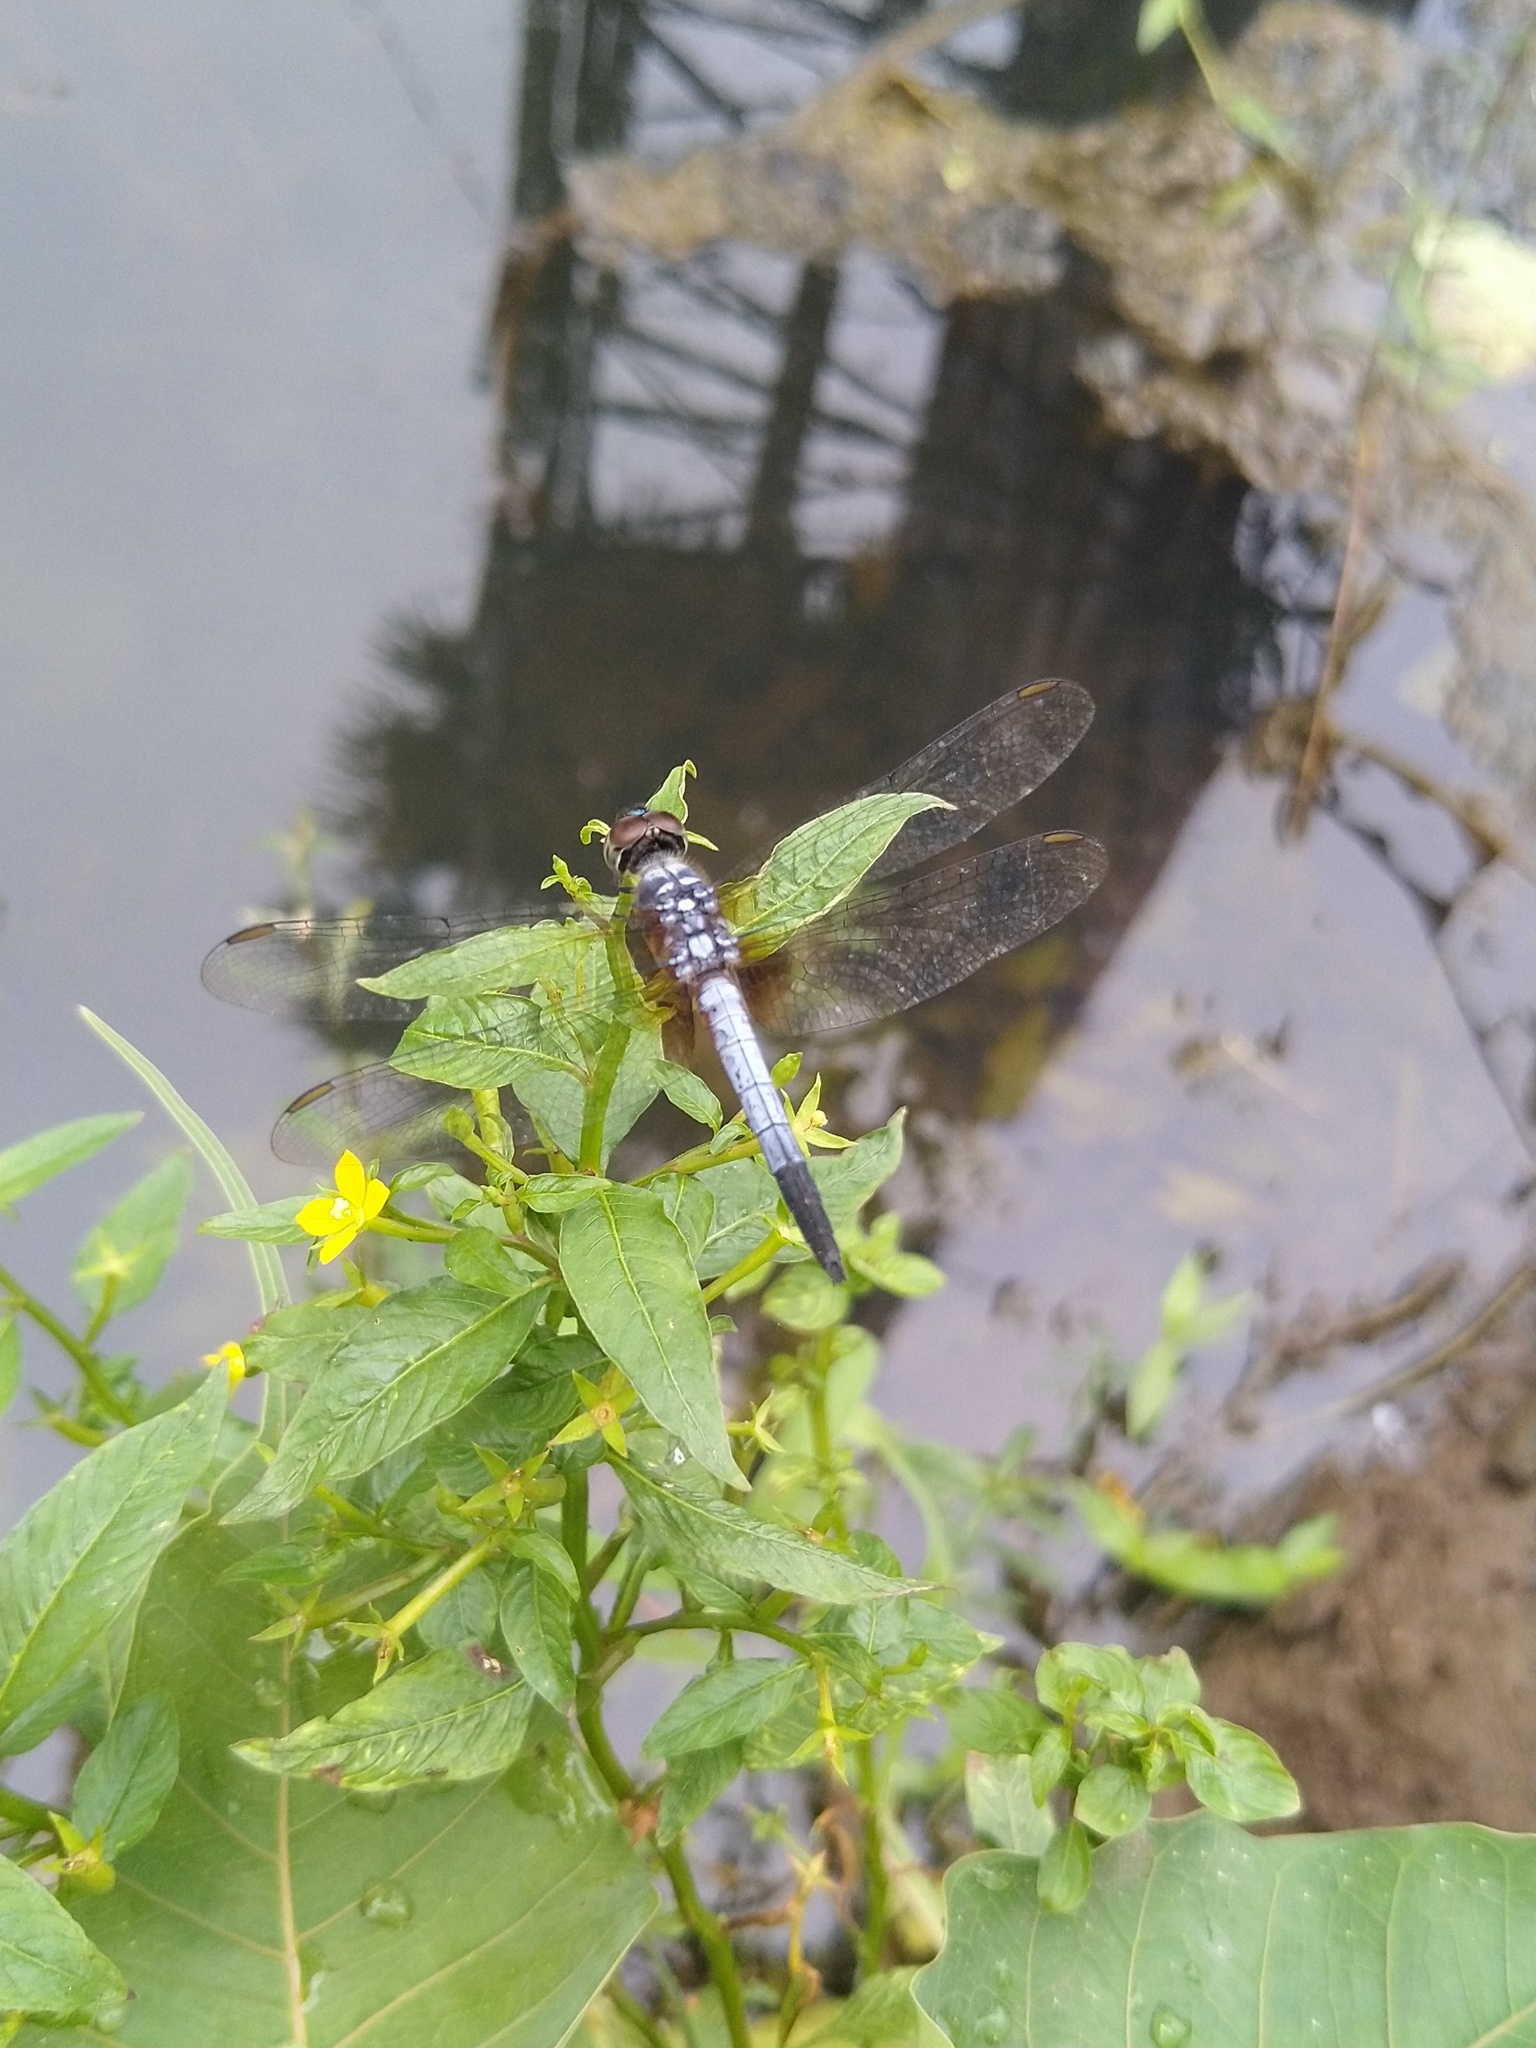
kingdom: Animalia
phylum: Arthropoda
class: Insecta
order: Odonata
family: Libellulidae
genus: Brachydiplax
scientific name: Brachydiplax chalybea
